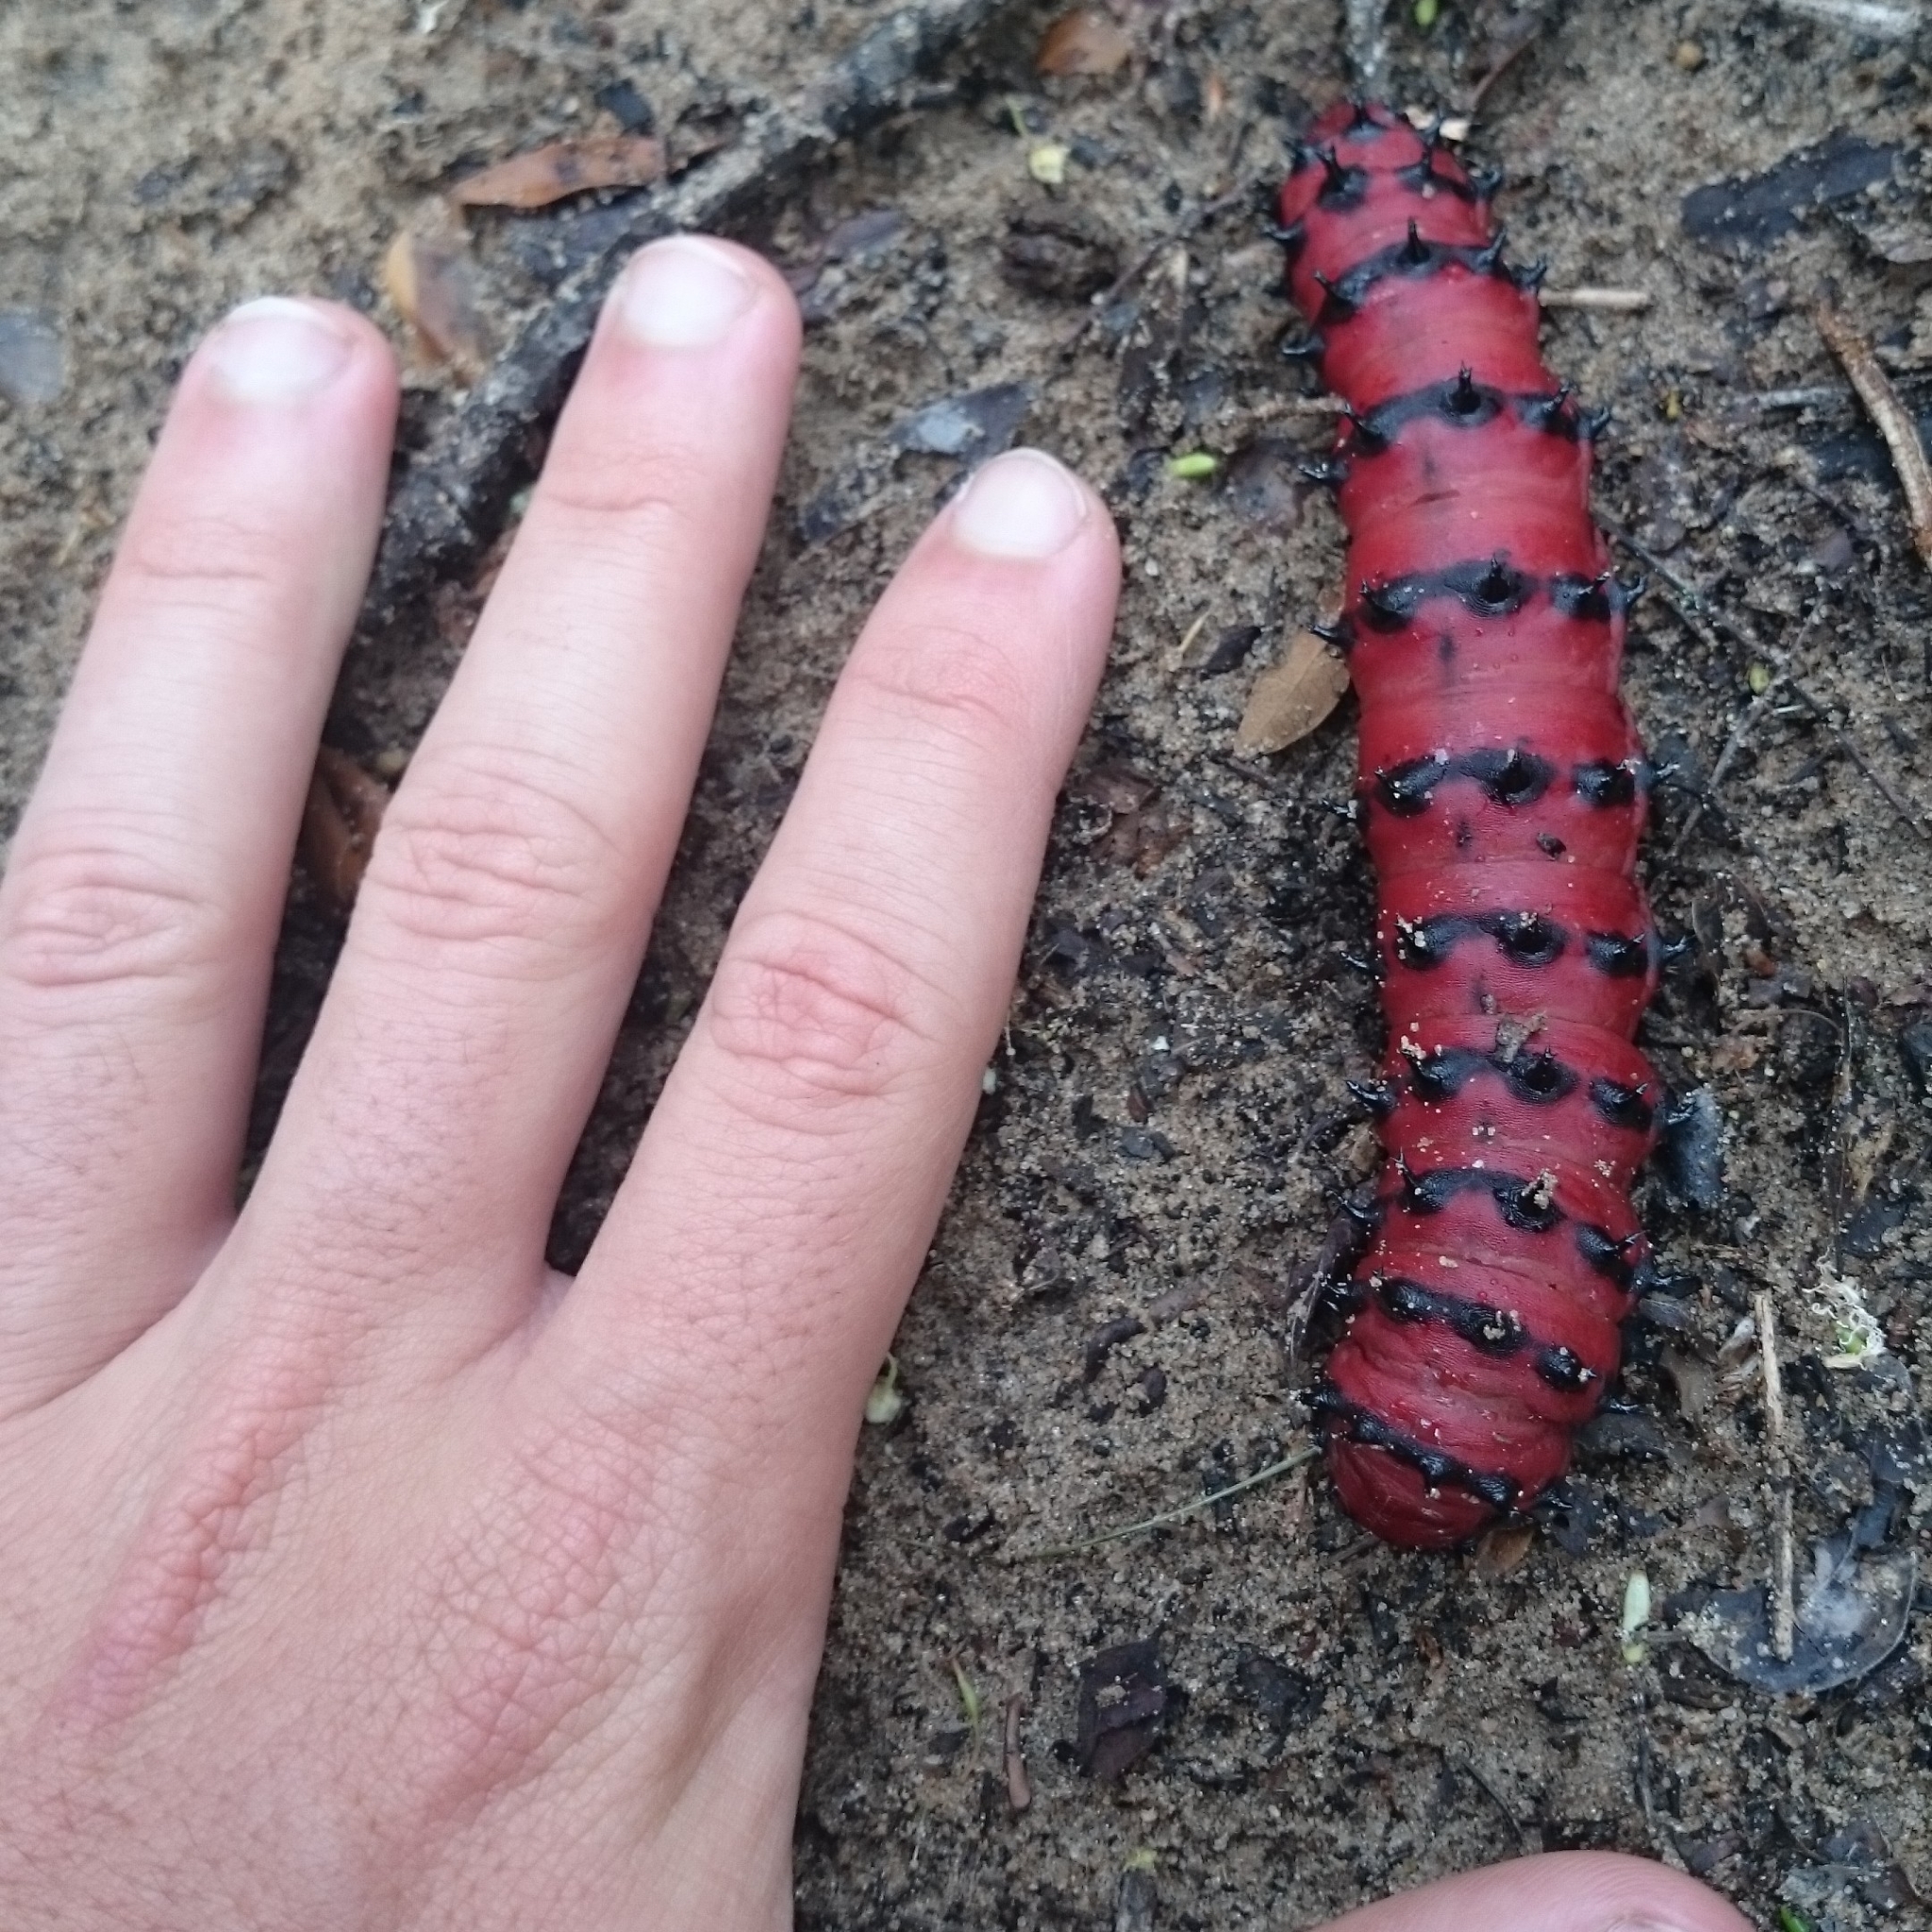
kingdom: Animalia
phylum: Arthropoda
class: Insecta
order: Lepidoptera
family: Saturniidae
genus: Melanocera
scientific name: Melanocera menippe
